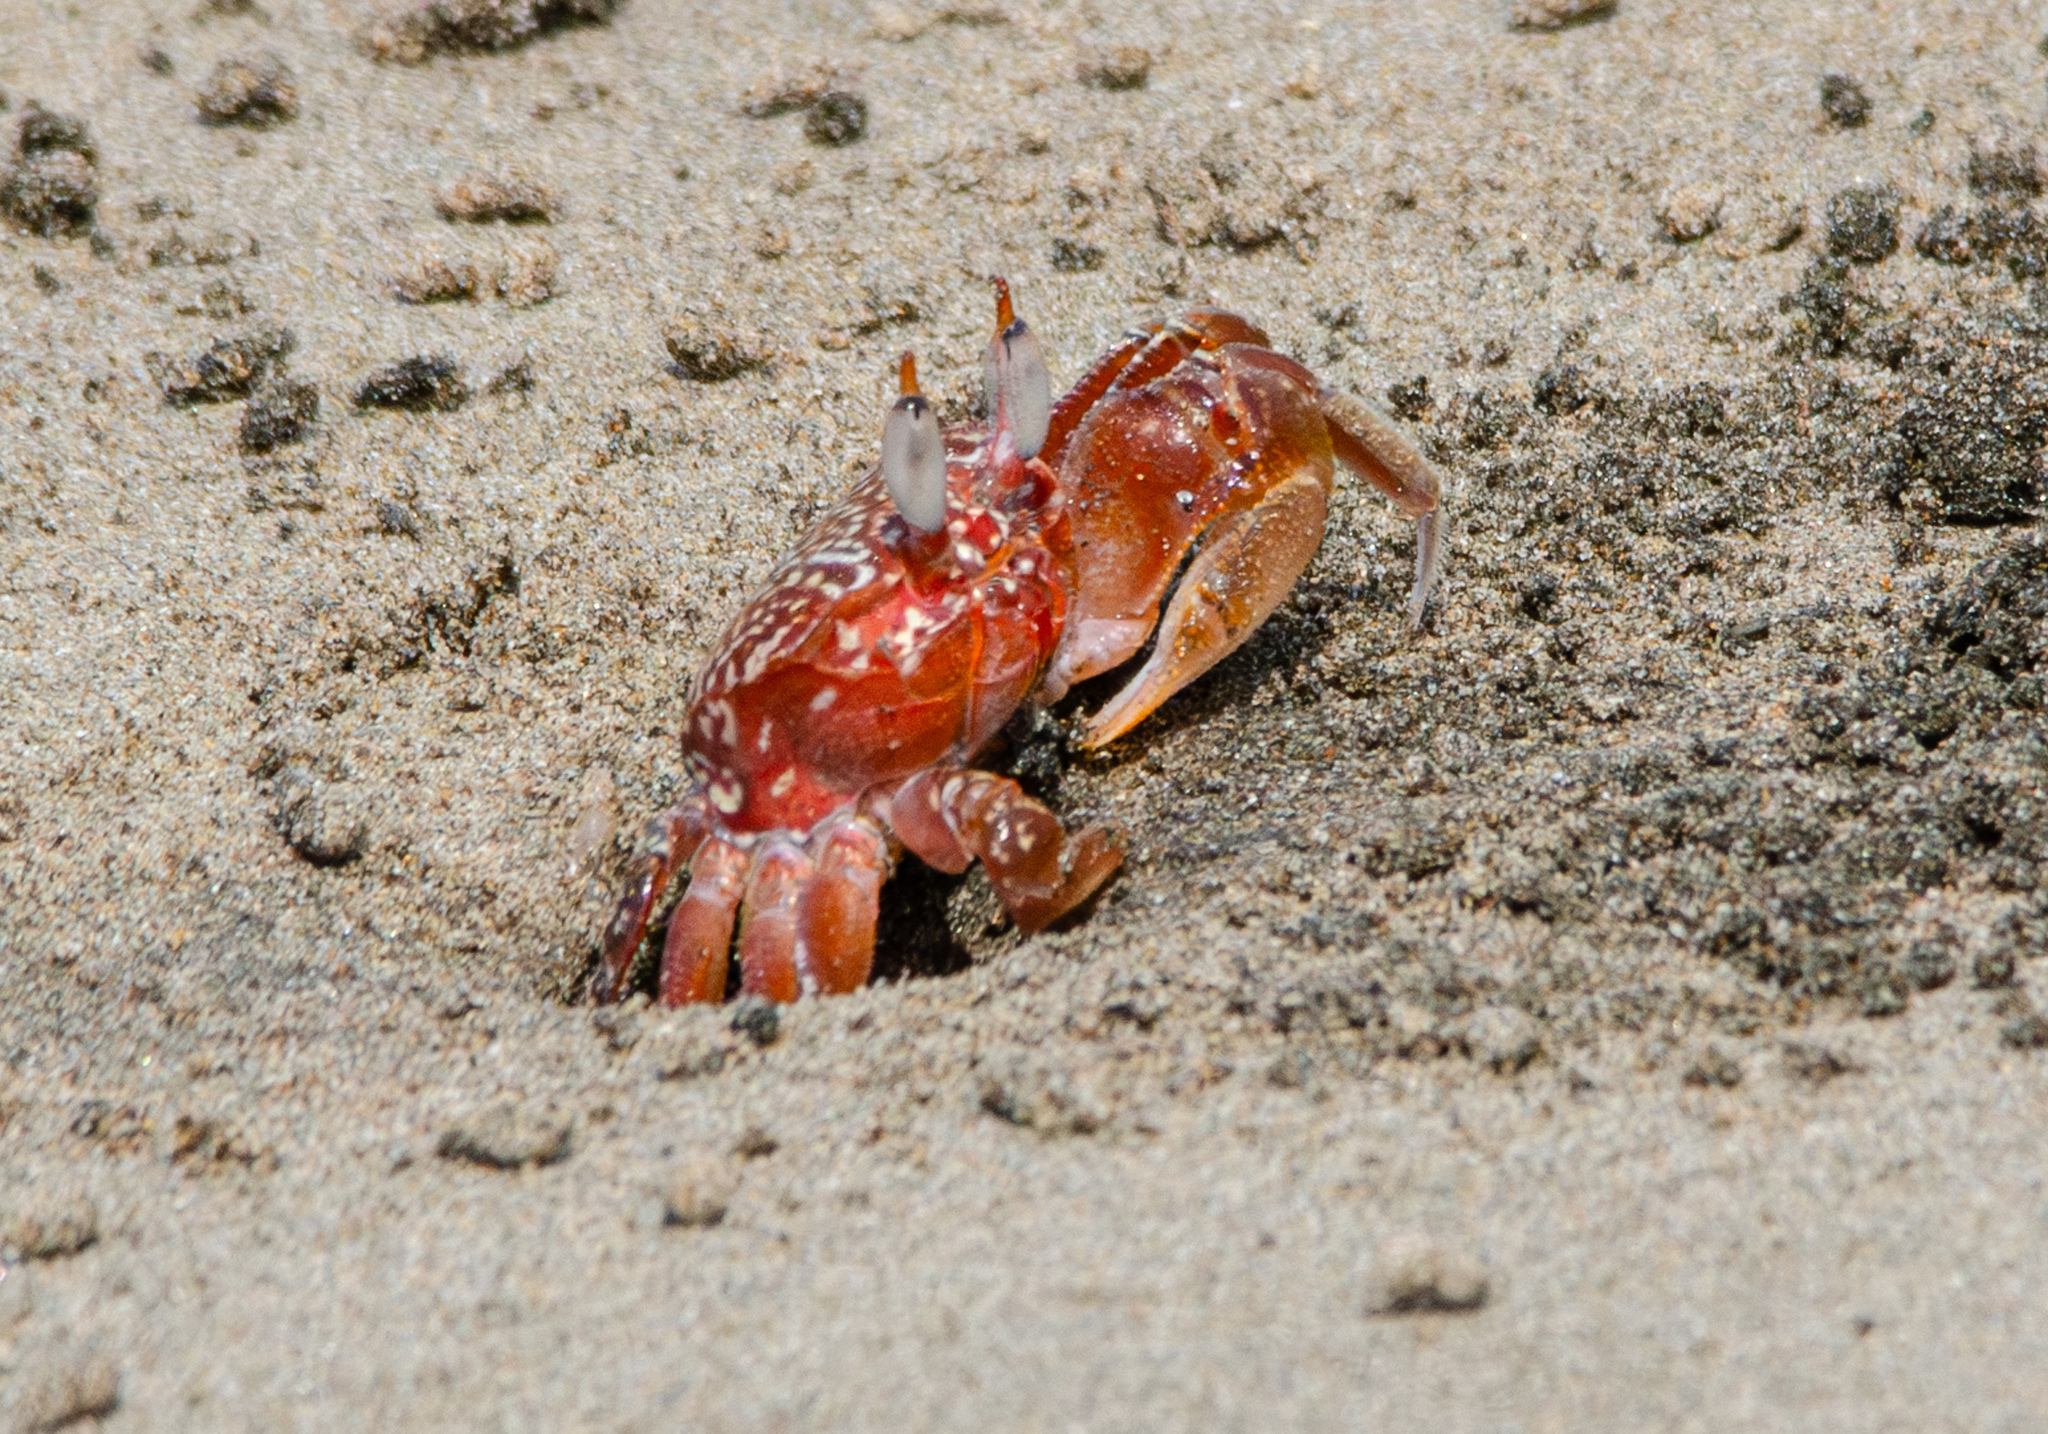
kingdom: Animalia
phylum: Arthropoda
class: Malacostraca
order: Decapoda
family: Ocypodidae
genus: Ocypode
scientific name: Ocypode gaudichaudii
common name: Pacific ghost crab
